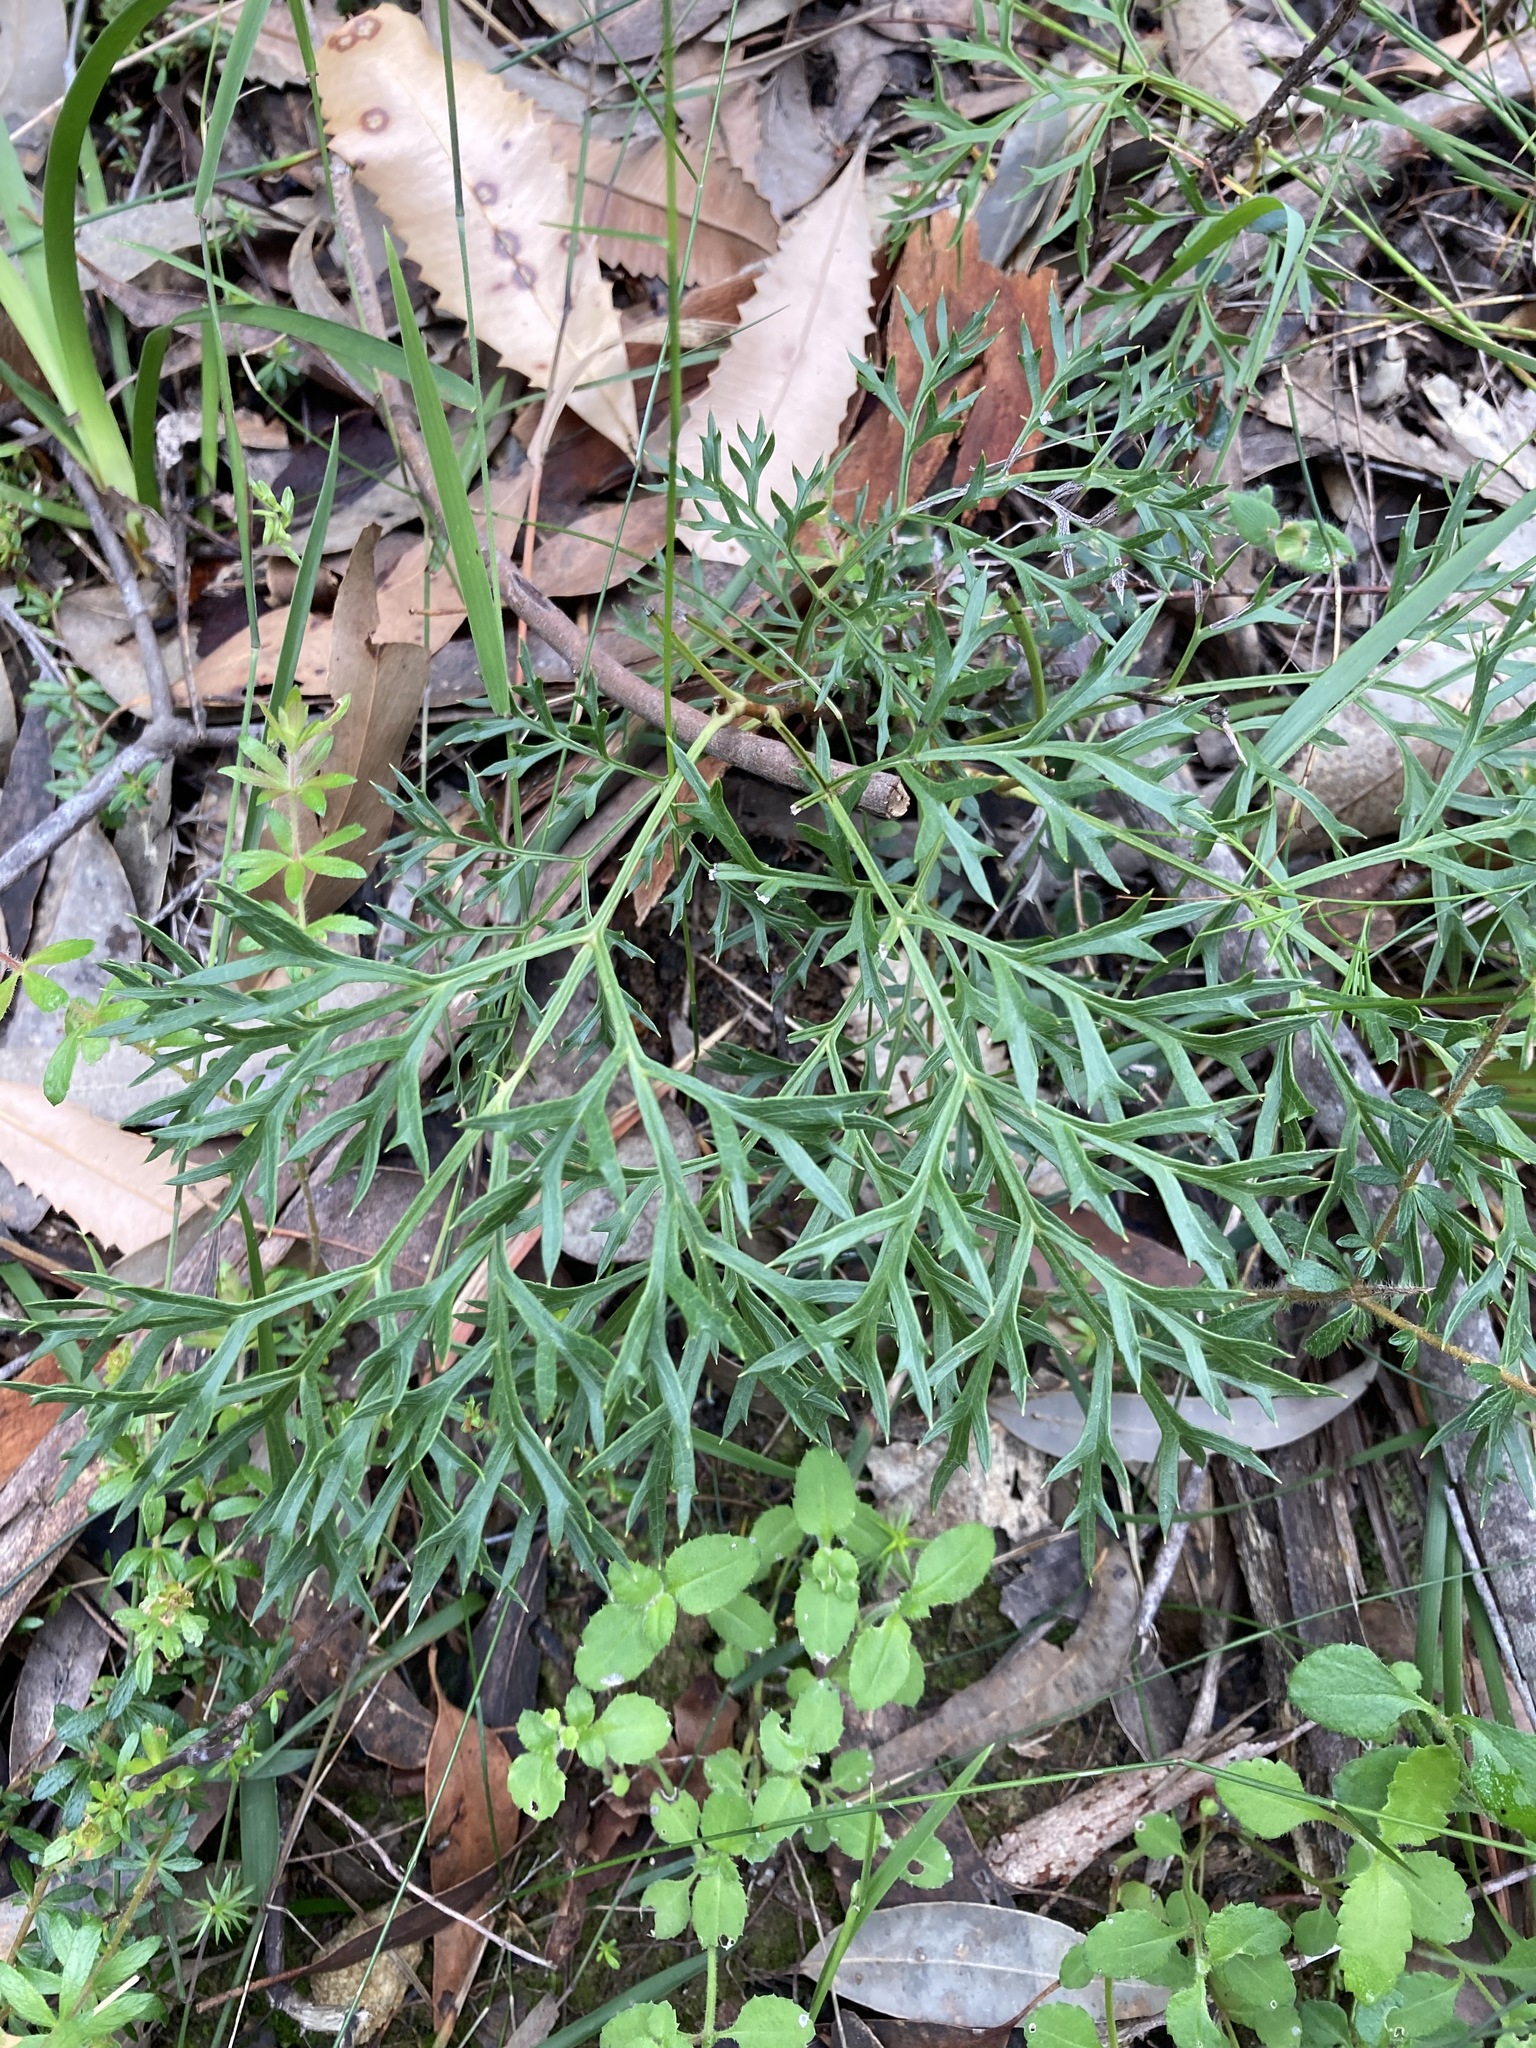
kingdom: Plantae
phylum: Tracheophyta
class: Magnoliopsida
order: Proteales
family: Proteaceae
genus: Lomatia
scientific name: Lomatia silaifolia
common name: Crinklebush
